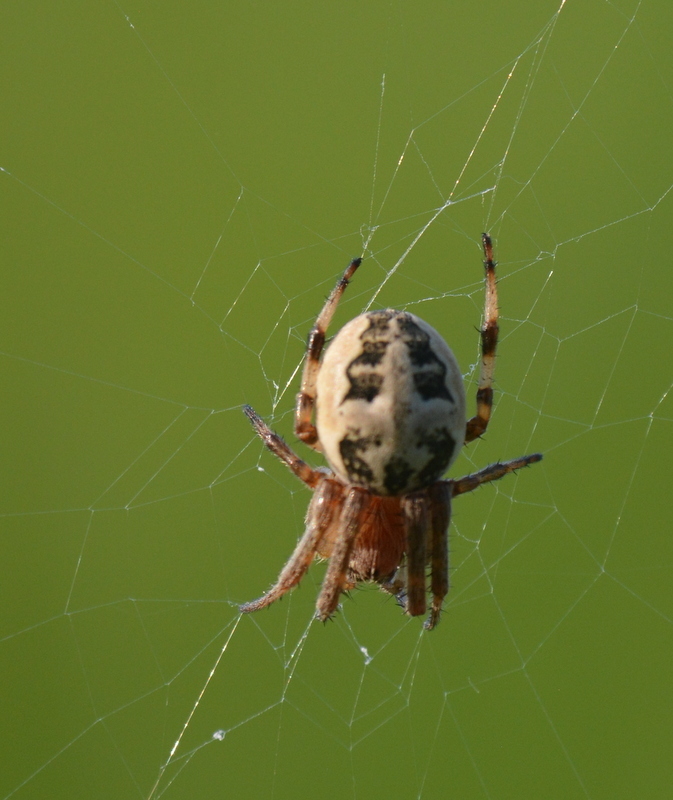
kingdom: Animalia
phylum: Arthropoda
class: Arachnida
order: Araneae
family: Araneidae
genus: Larinioides
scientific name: Larinioides cornutus
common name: Furrow orbweaver
